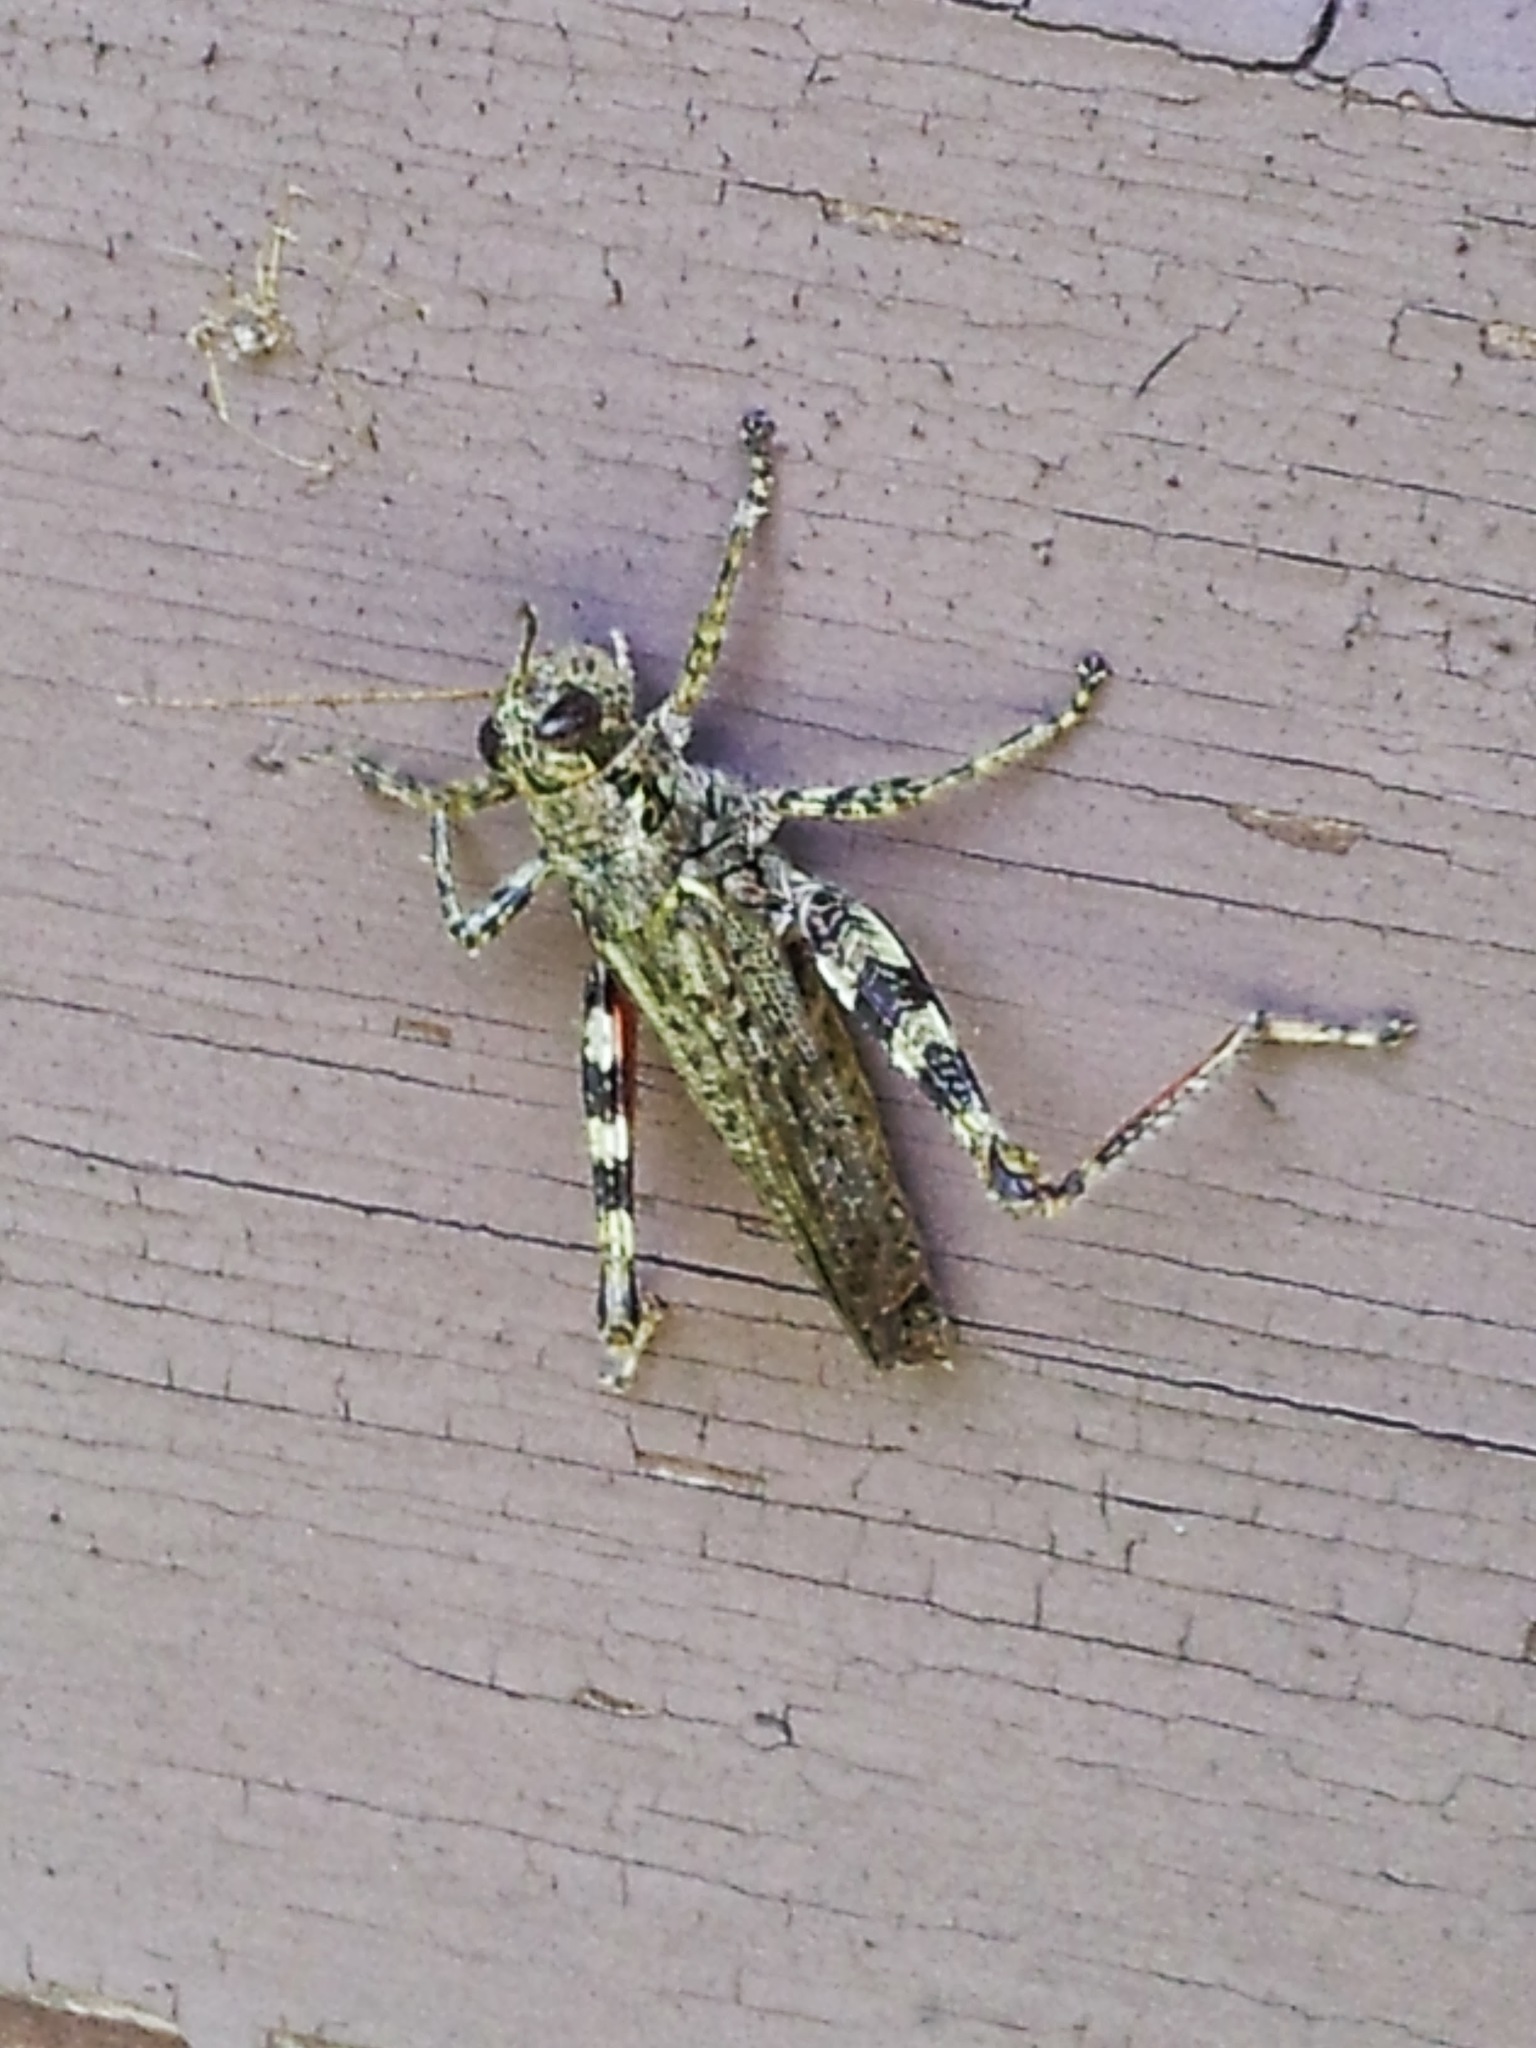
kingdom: Animalia
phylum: Arthropoda
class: Insecta
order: Orthoptera
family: Acrididae
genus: Melanoplus
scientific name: Melanoplus punctulatus
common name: Pine-tree spur-throat grasshopper
